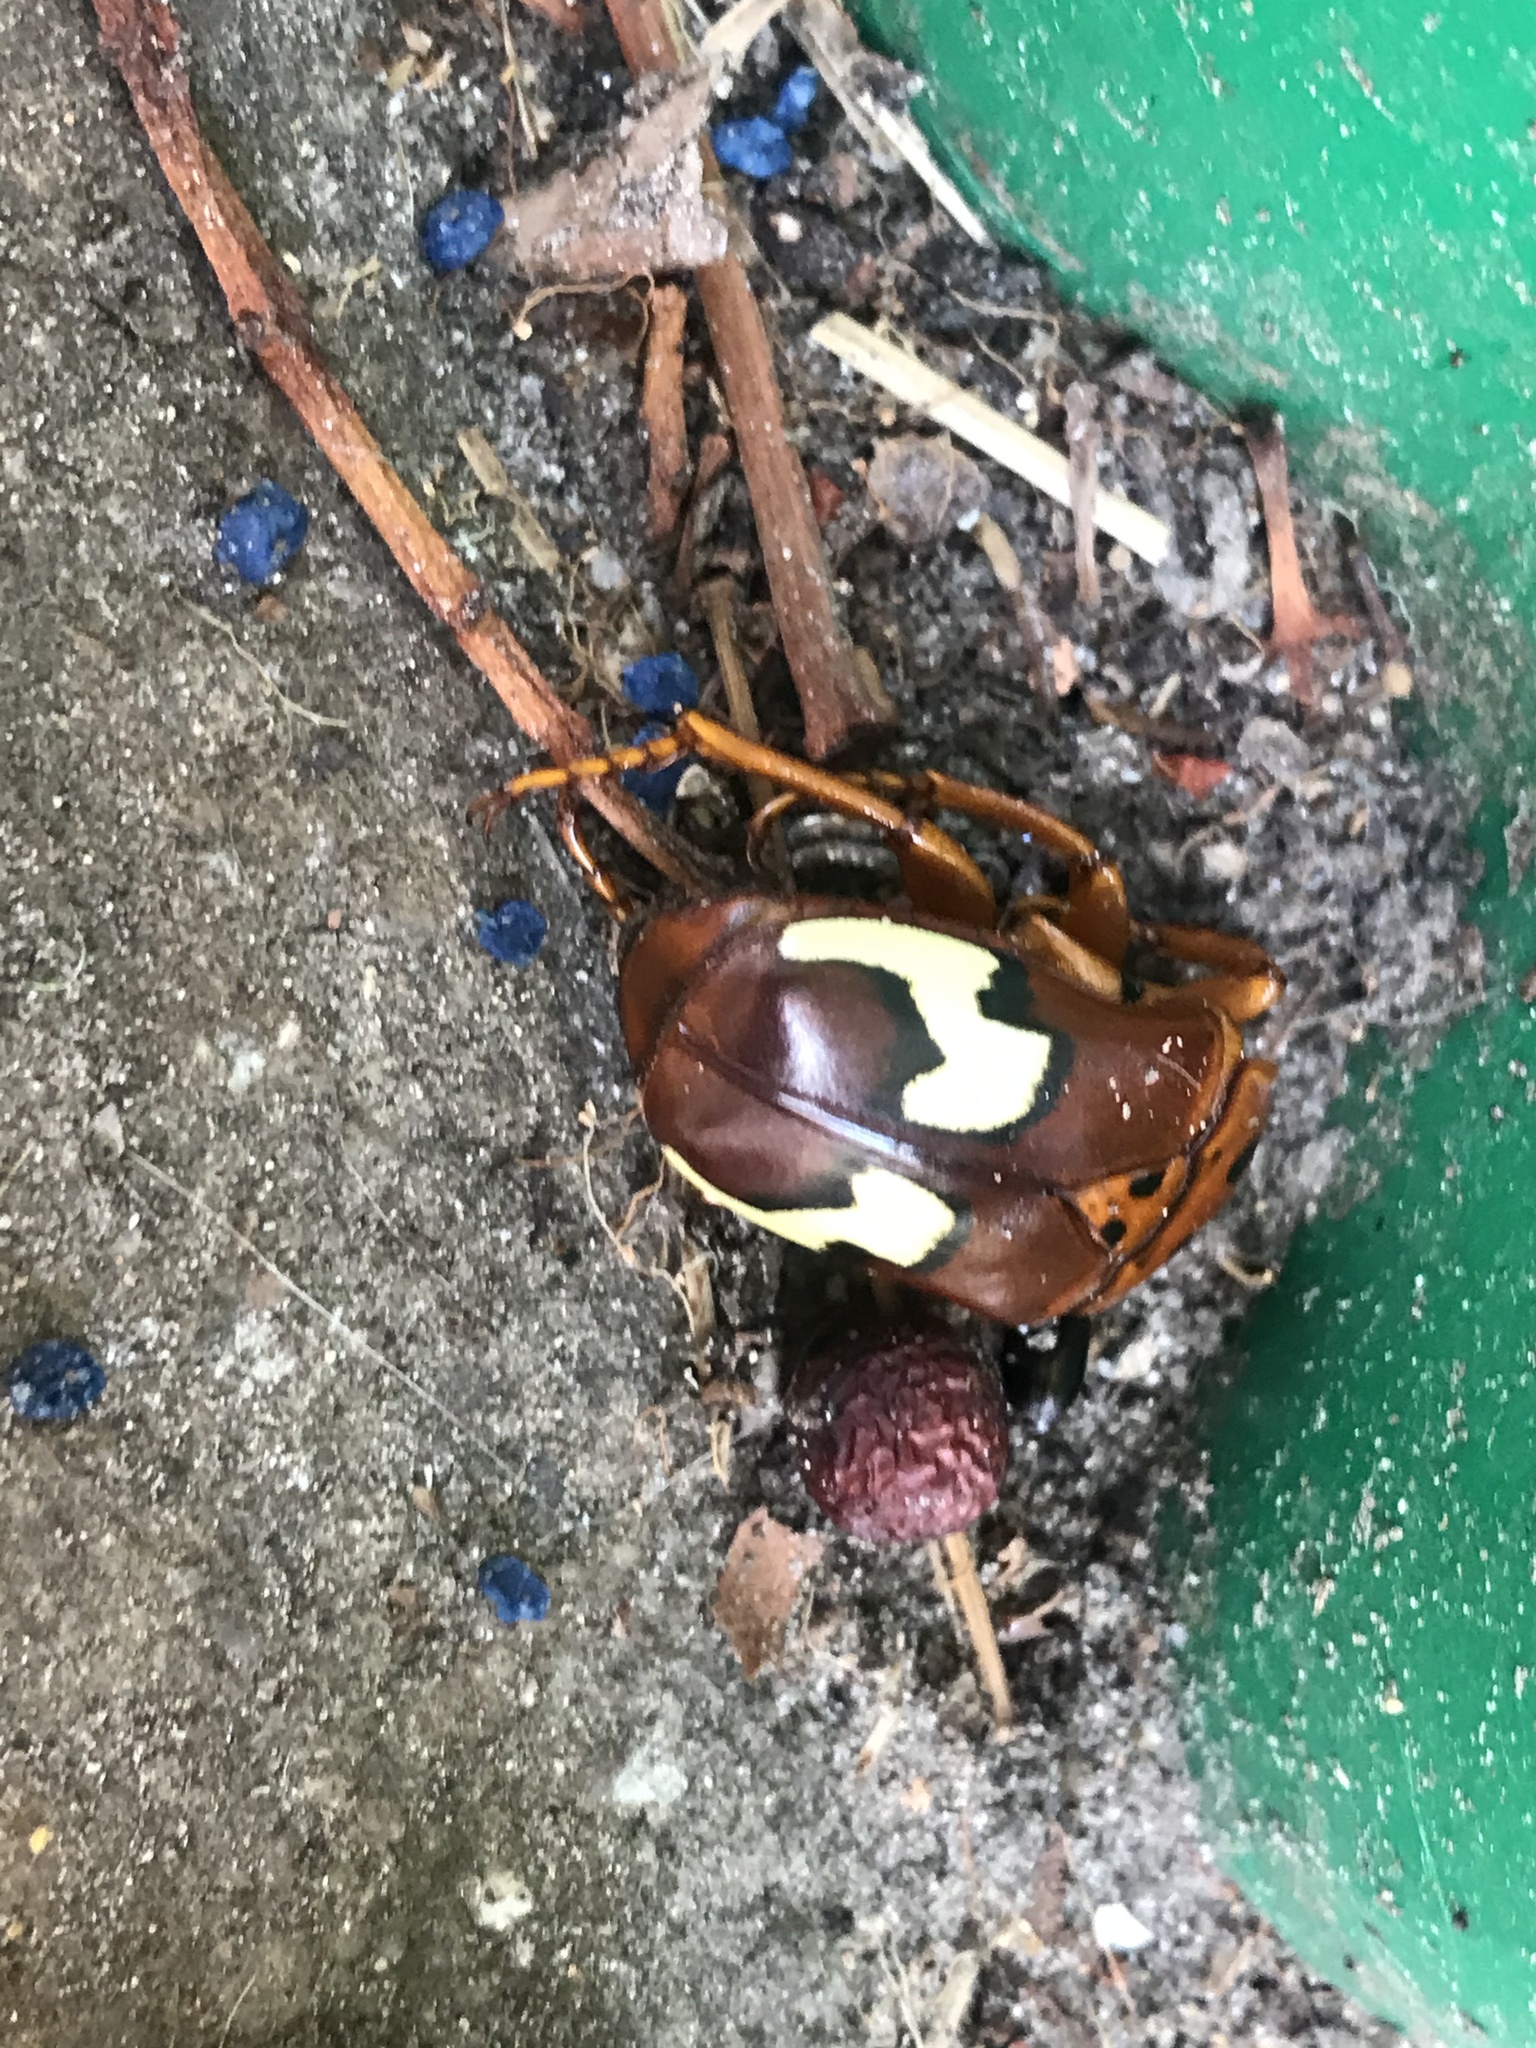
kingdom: Animalia
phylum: Arthropoda
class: Insecta
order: Coleoptera
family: Scarabaeidae
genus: Anisorrhina
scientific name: Anisorrhina flavomaculata
